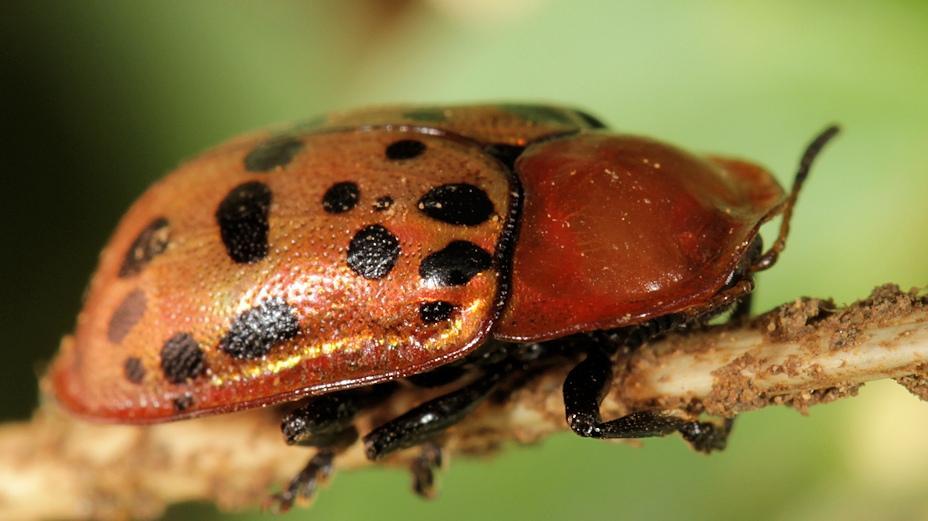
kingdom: Animalia
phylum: Arthropoda
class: Insecta
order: Coleoptera
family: Chrysomelidae
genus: Conchyloctenia
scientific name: Conchyloctenia punctata
